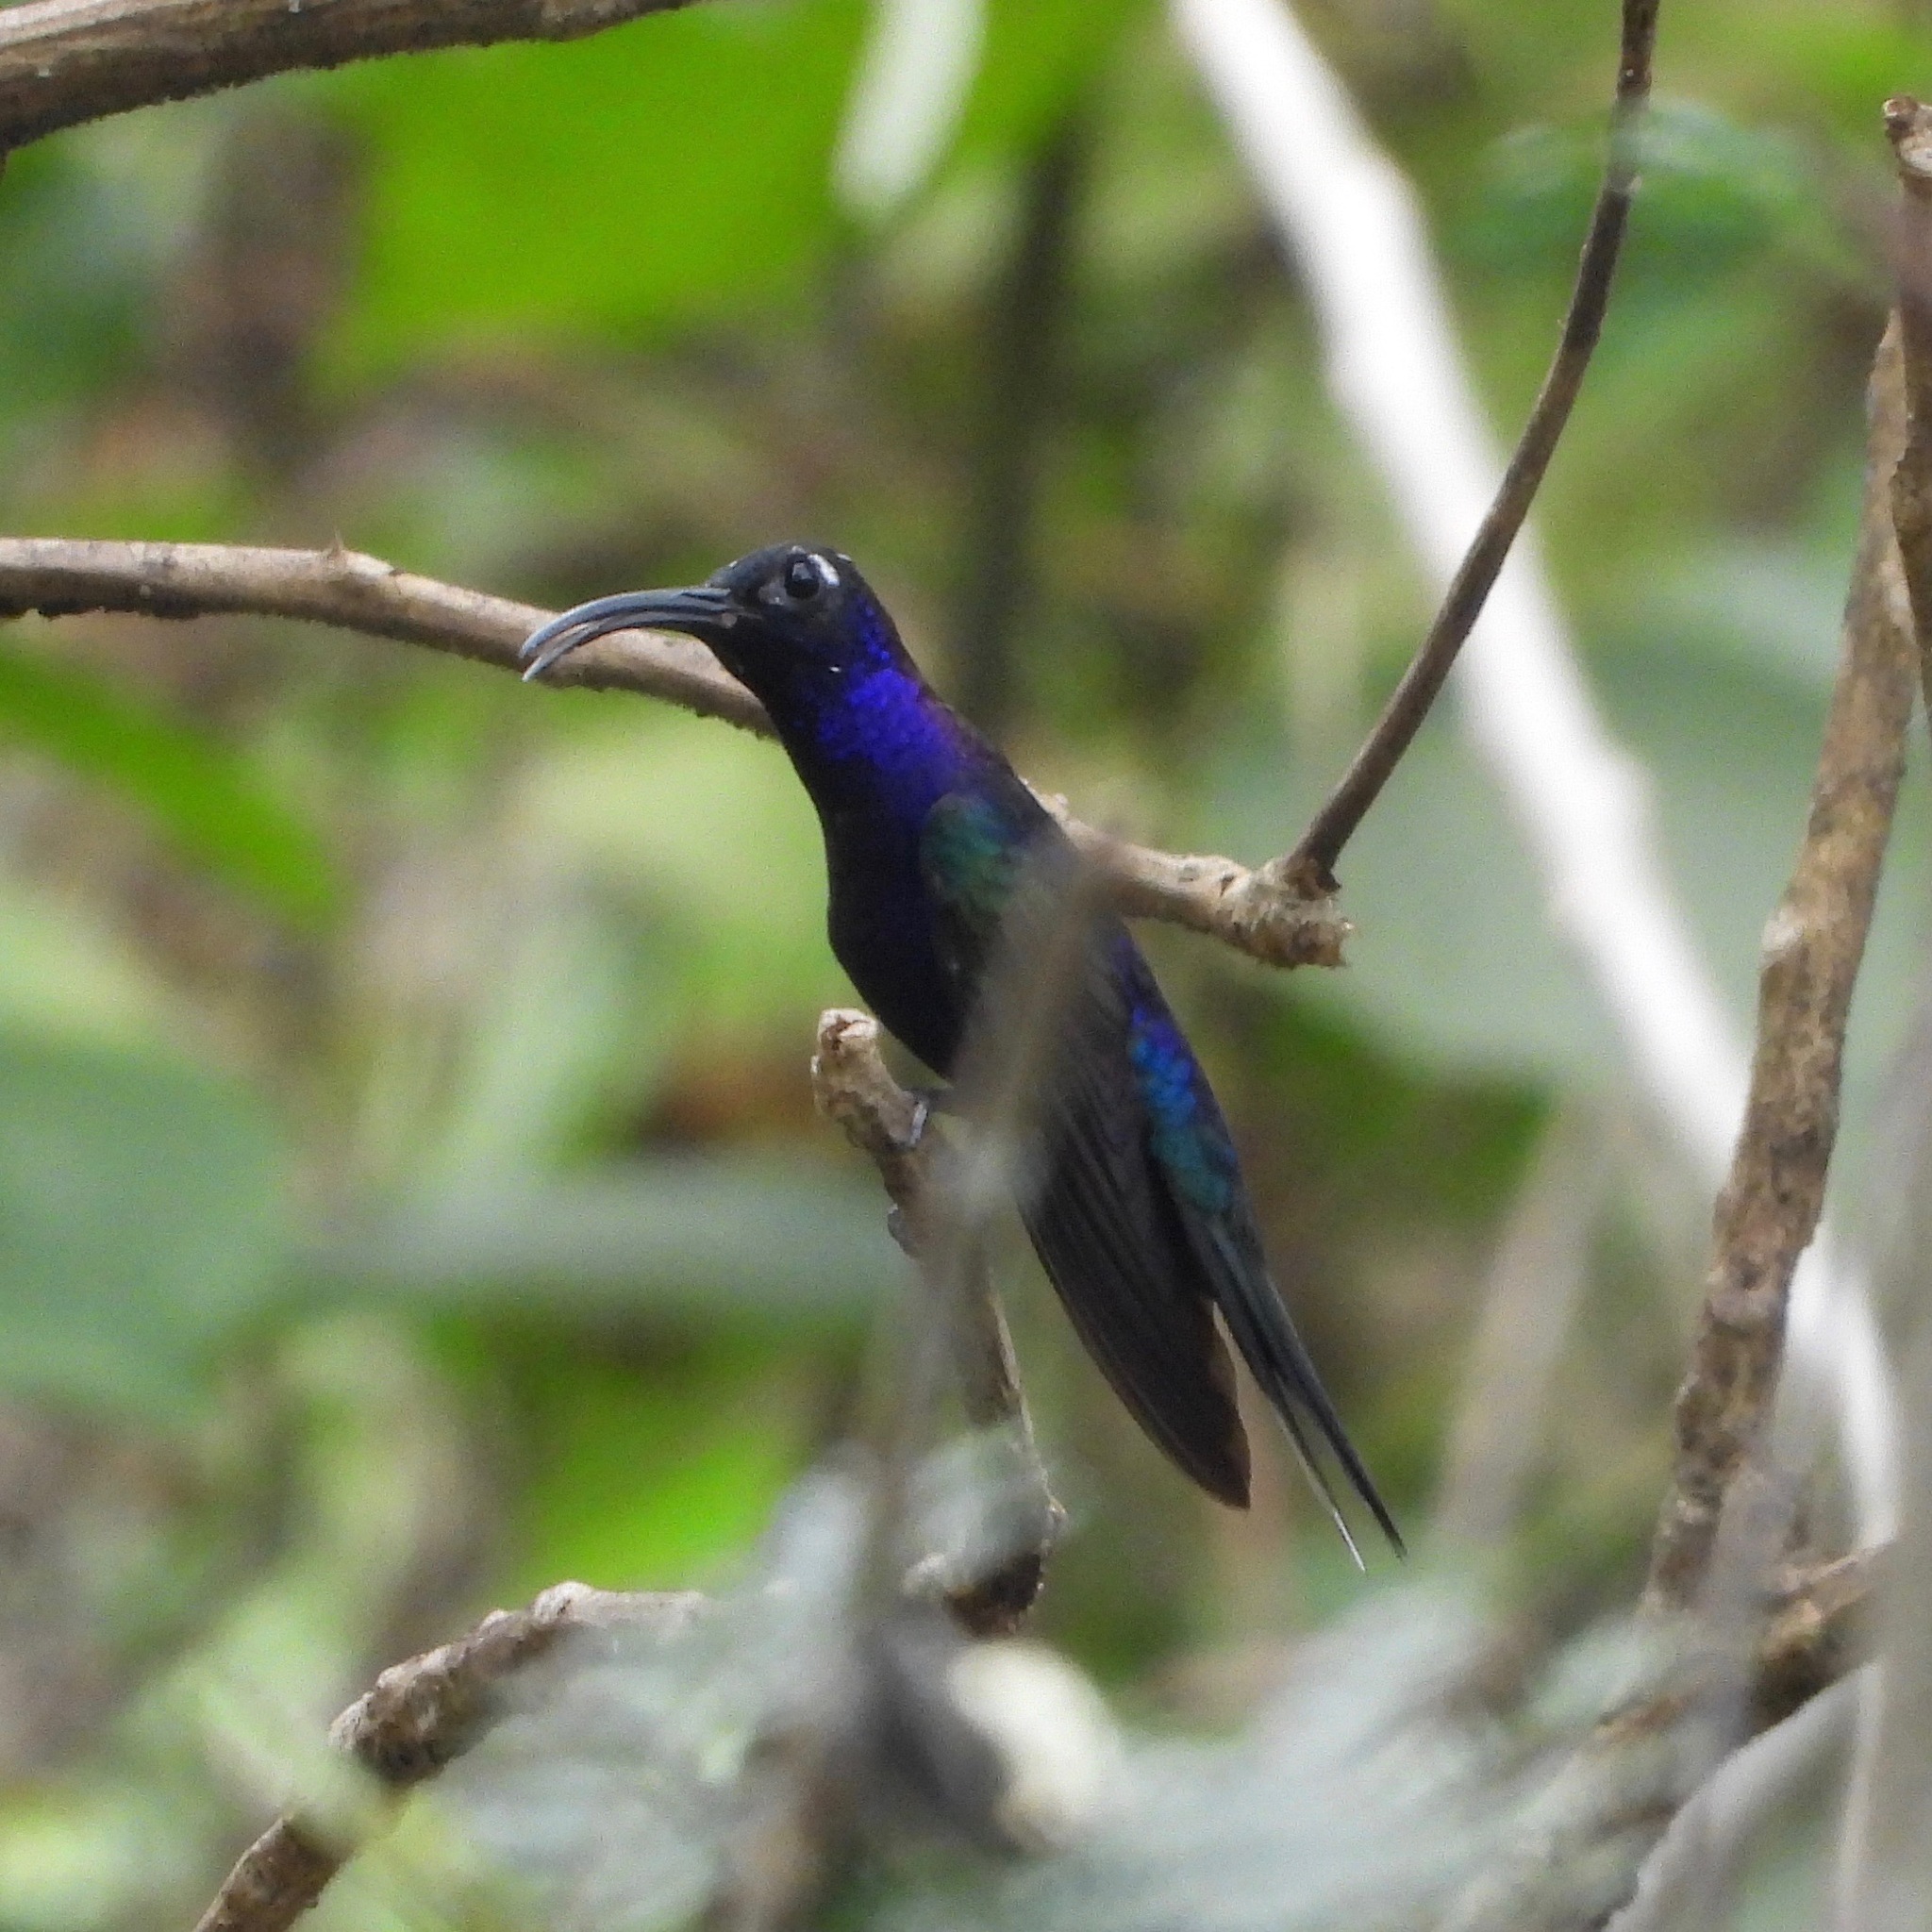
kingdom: Animalia
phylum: Chordata
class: Aves
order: Apodiformes
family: Trochilidae
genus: Campylopterus
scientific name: Campylopterus hemileucurus
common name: Violet sabrewing
